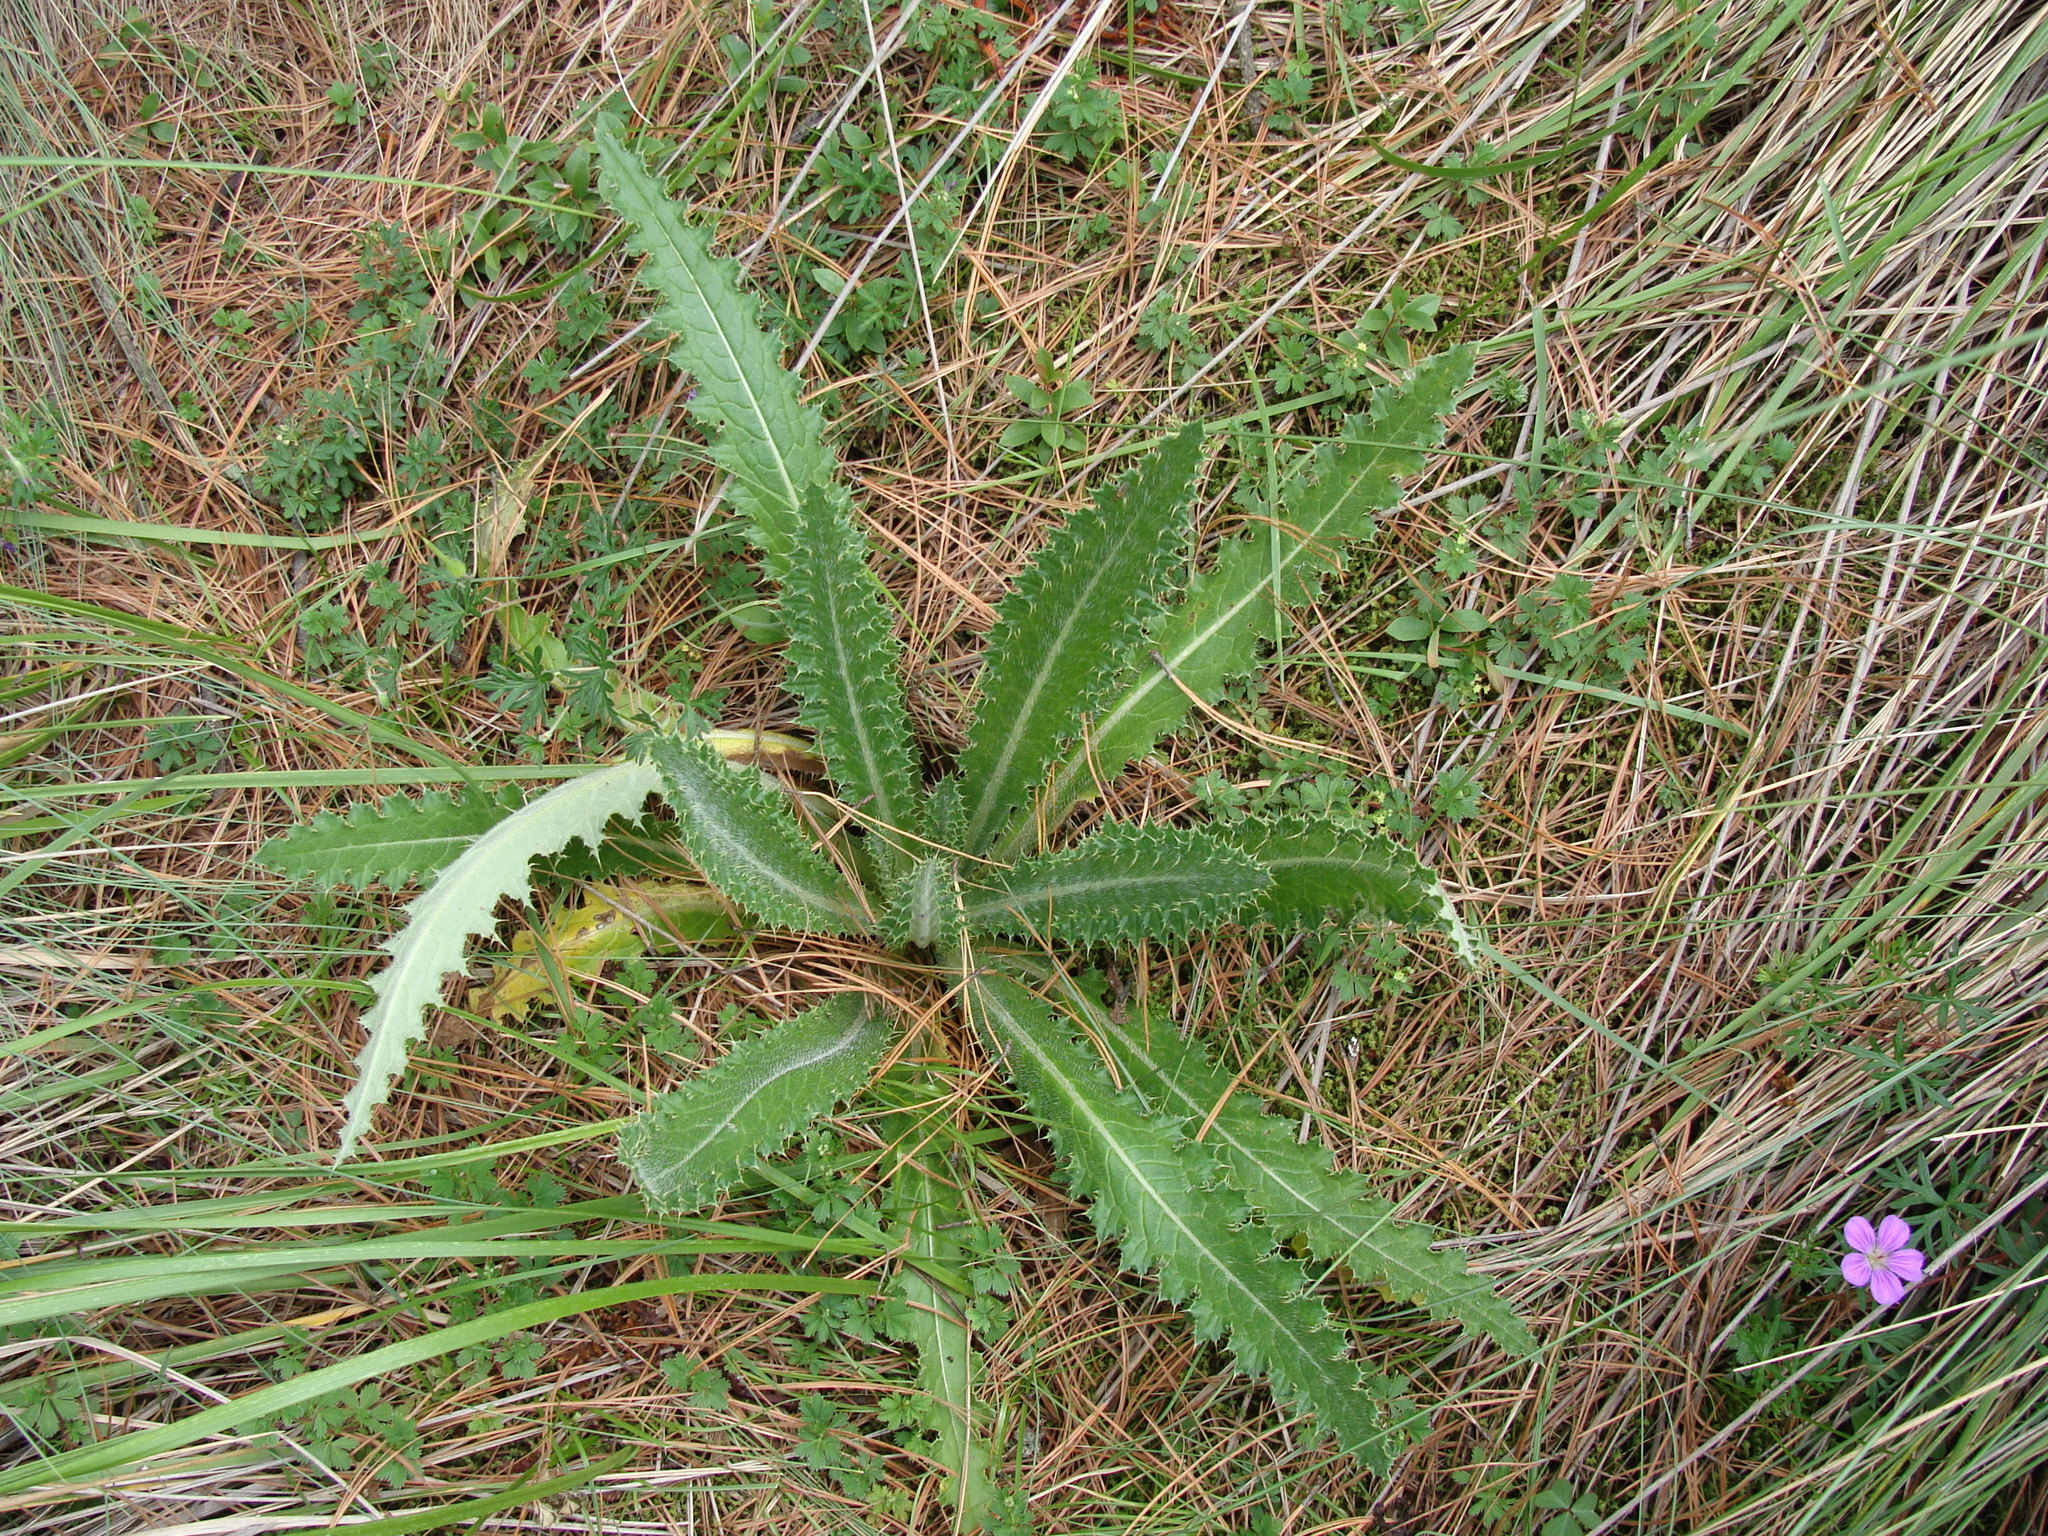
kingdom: Plantae
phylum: Tracheophyta
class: Magnoliopsida
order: Asterales
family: Asteraceae
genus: Cirsium
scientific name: Cirsium ehrenbergii
